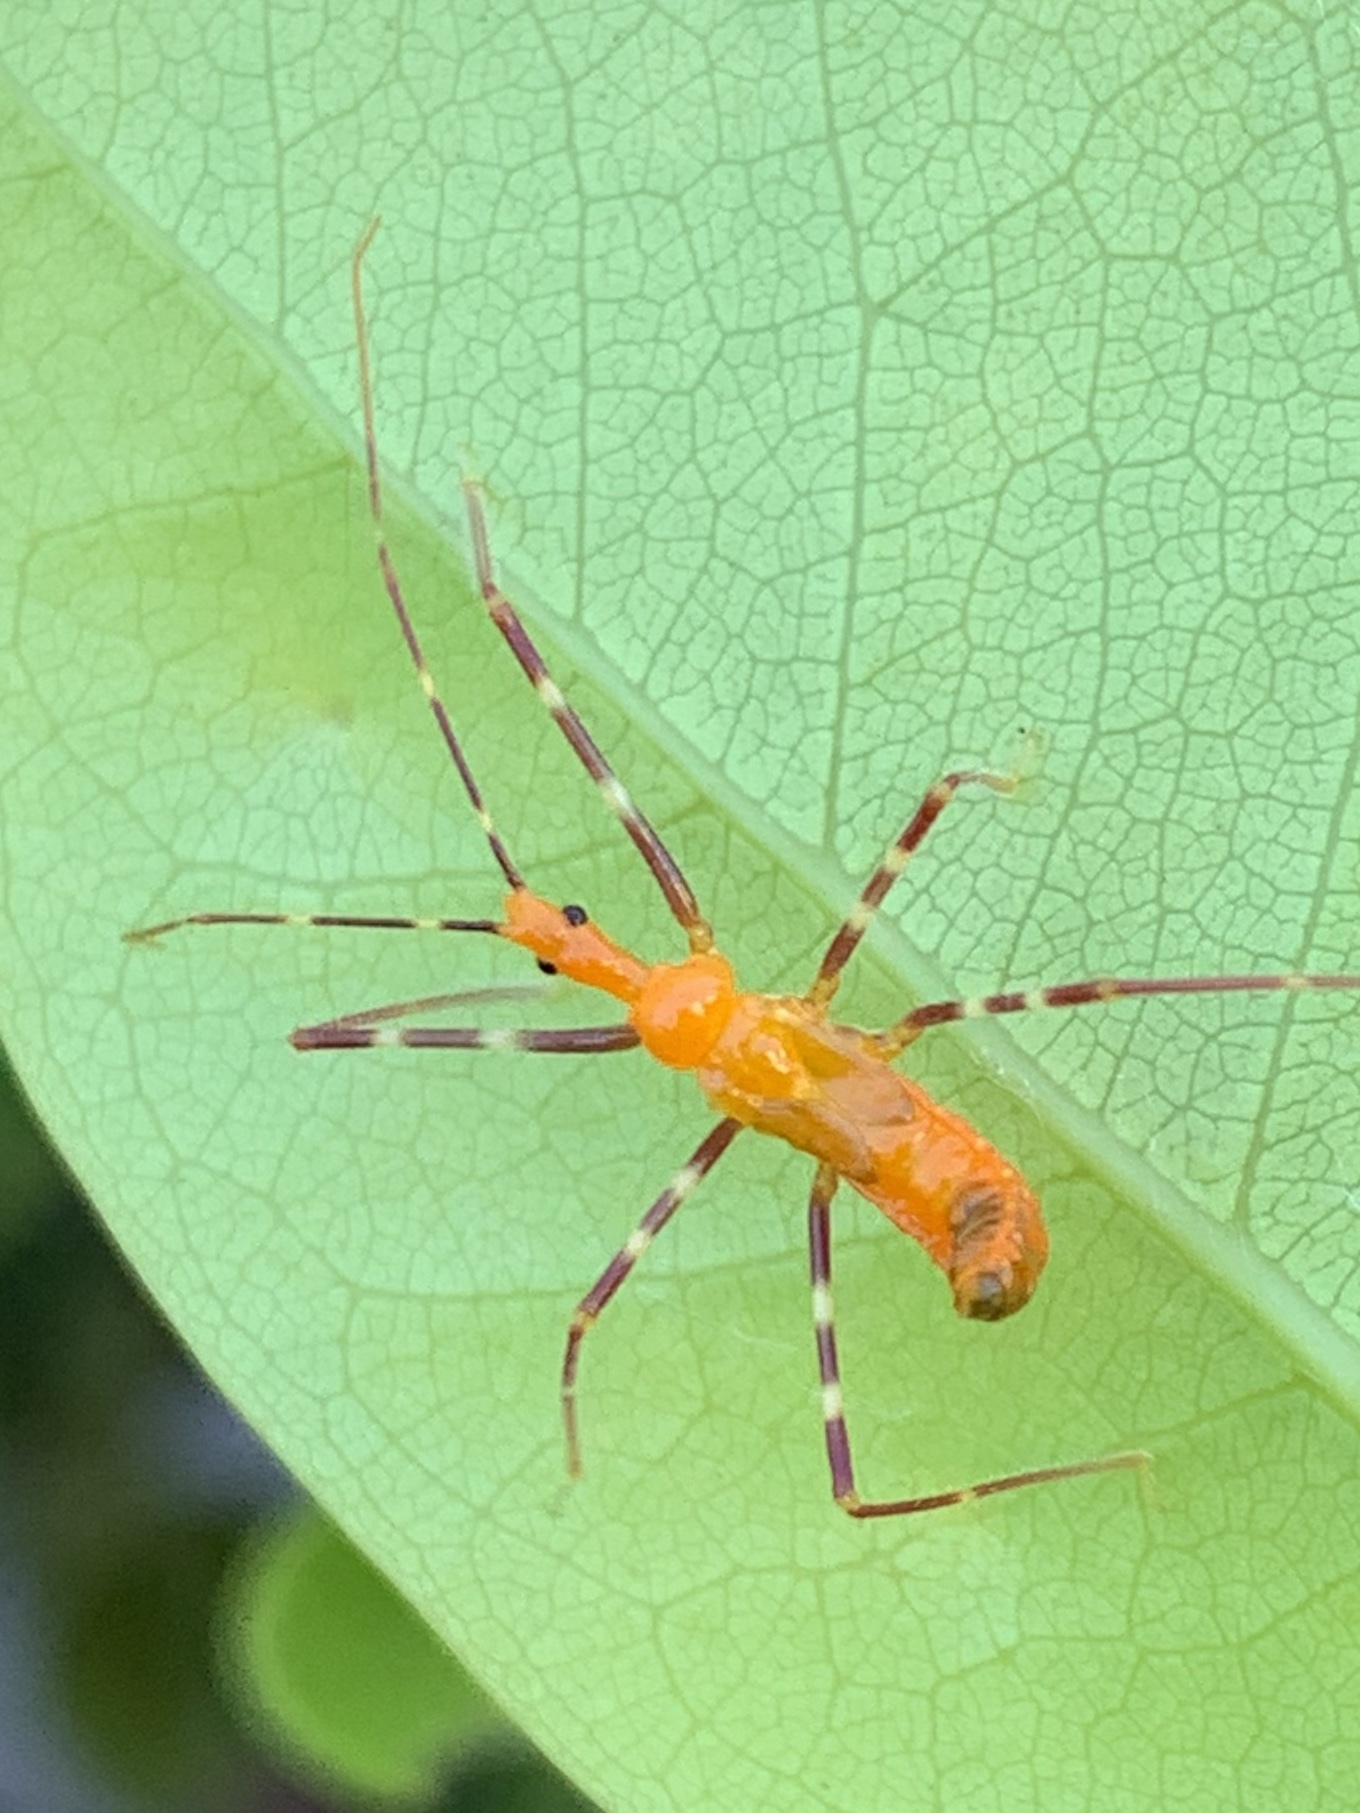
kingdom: Animalia
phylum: Arthropoda
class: Insecta
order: Hemiptera
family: Reduviidae
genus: Zelus
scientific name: Zelus longipes
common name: Milkweed assassin bug
